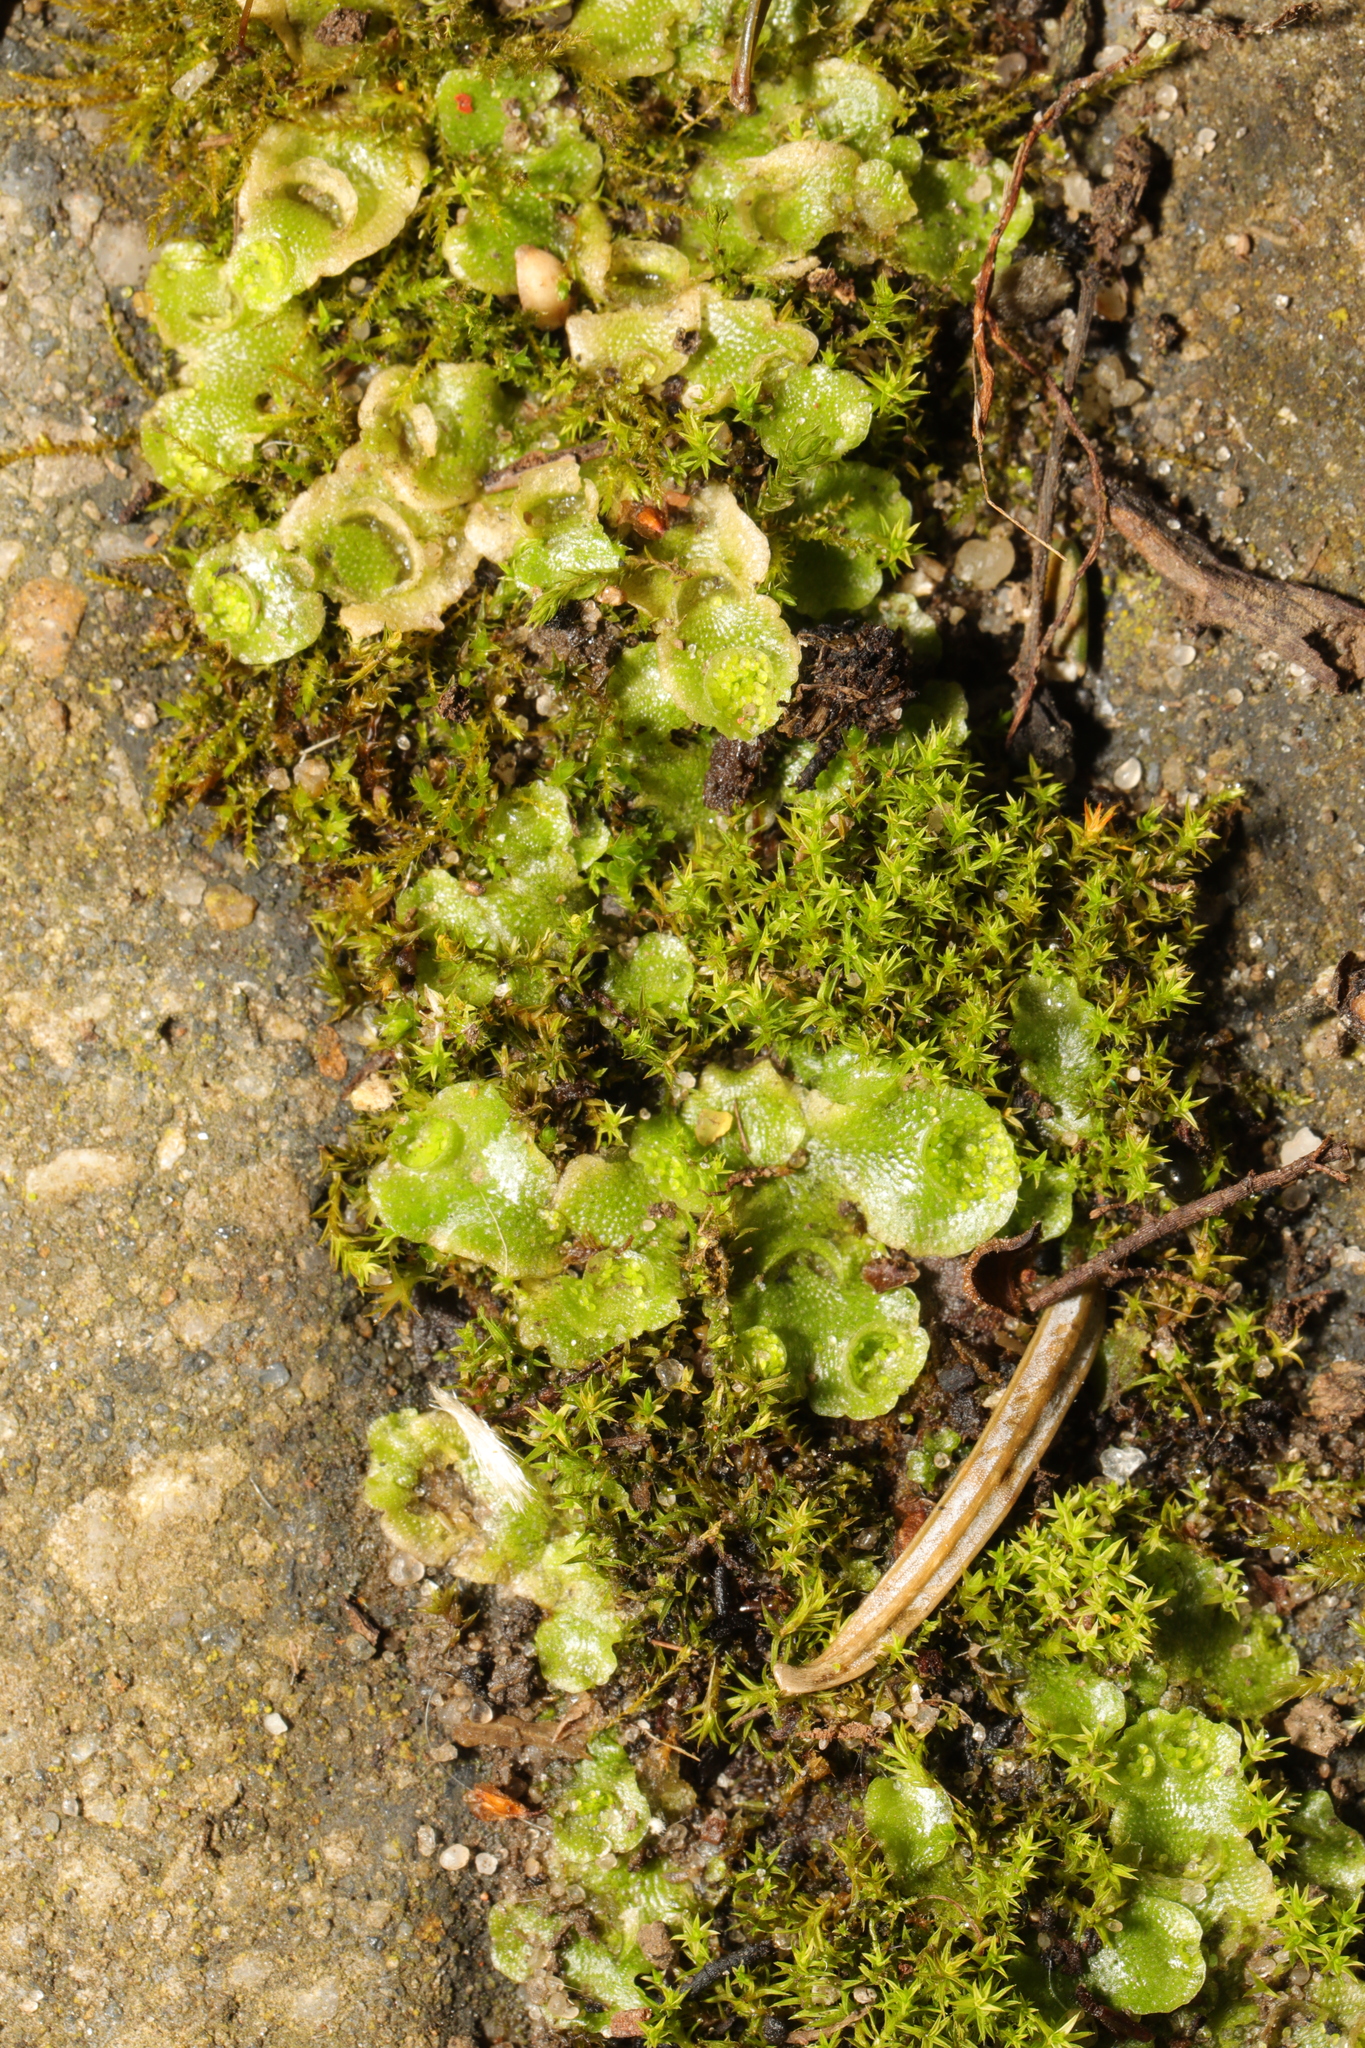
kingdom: Plantae
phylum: Marchantiophyta
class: Marchantiopsida
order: Lunulariales
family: Lunulariaceae
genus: Lunularia
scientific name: Lunularia cruciata
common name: Crescent-cup liverwort
